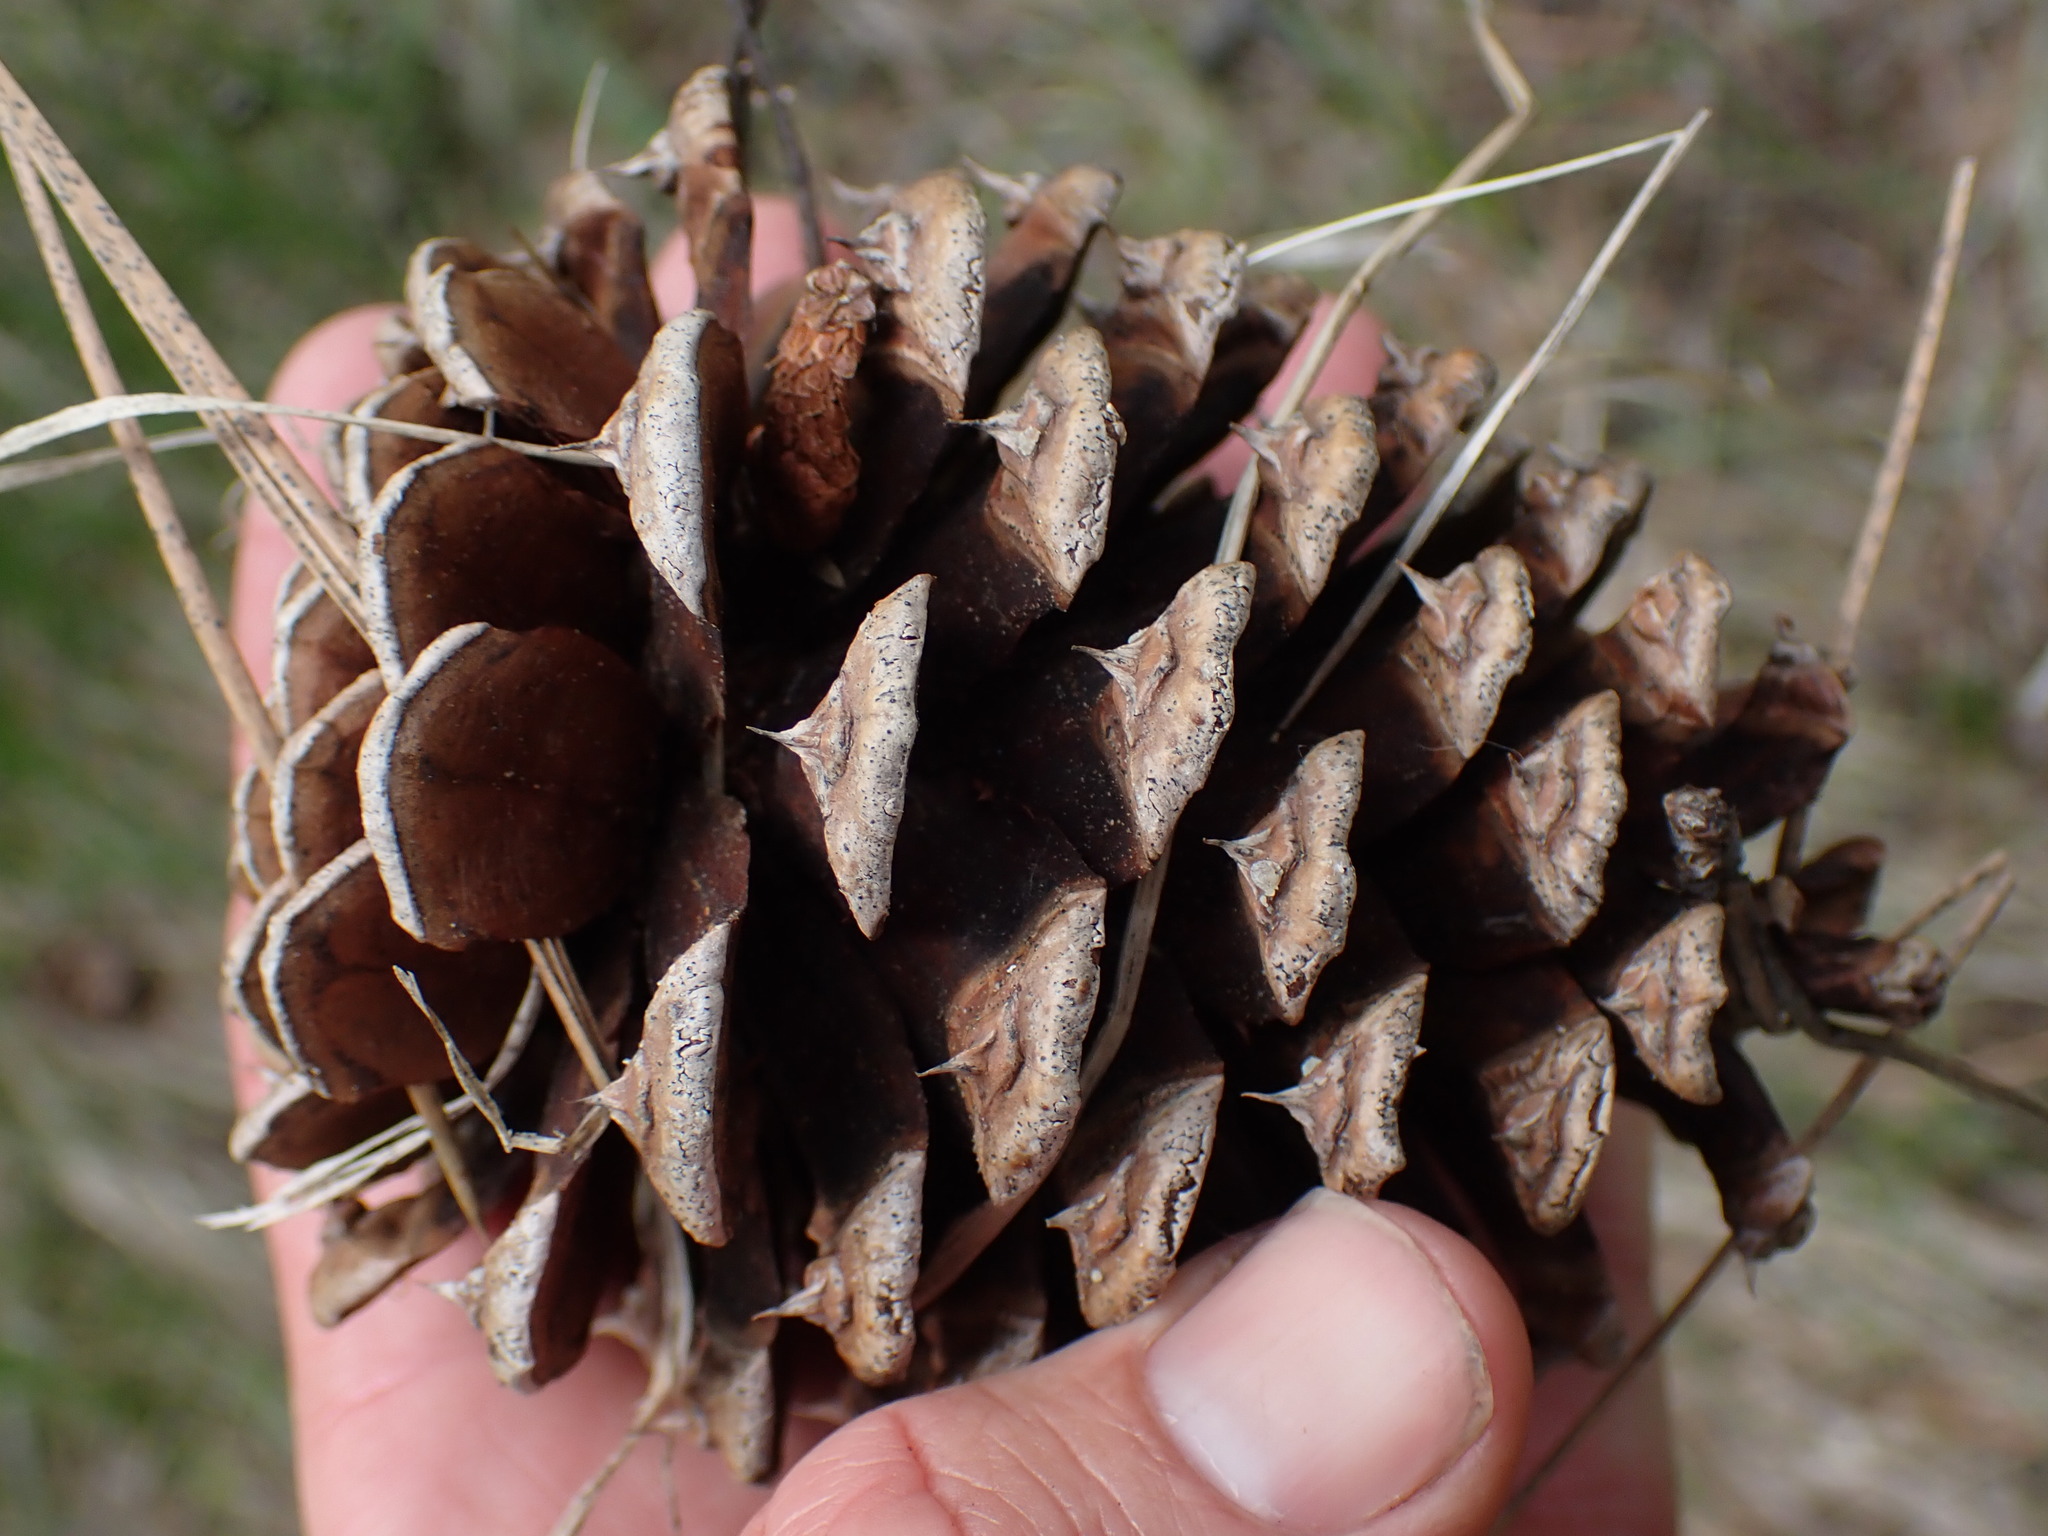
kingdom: Plantae
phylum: Tracheophyta
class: Pinopsida
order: Pinales
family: Pinaceae
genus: Pinus
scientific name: Pinus contorta
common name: Lodgepole pine
